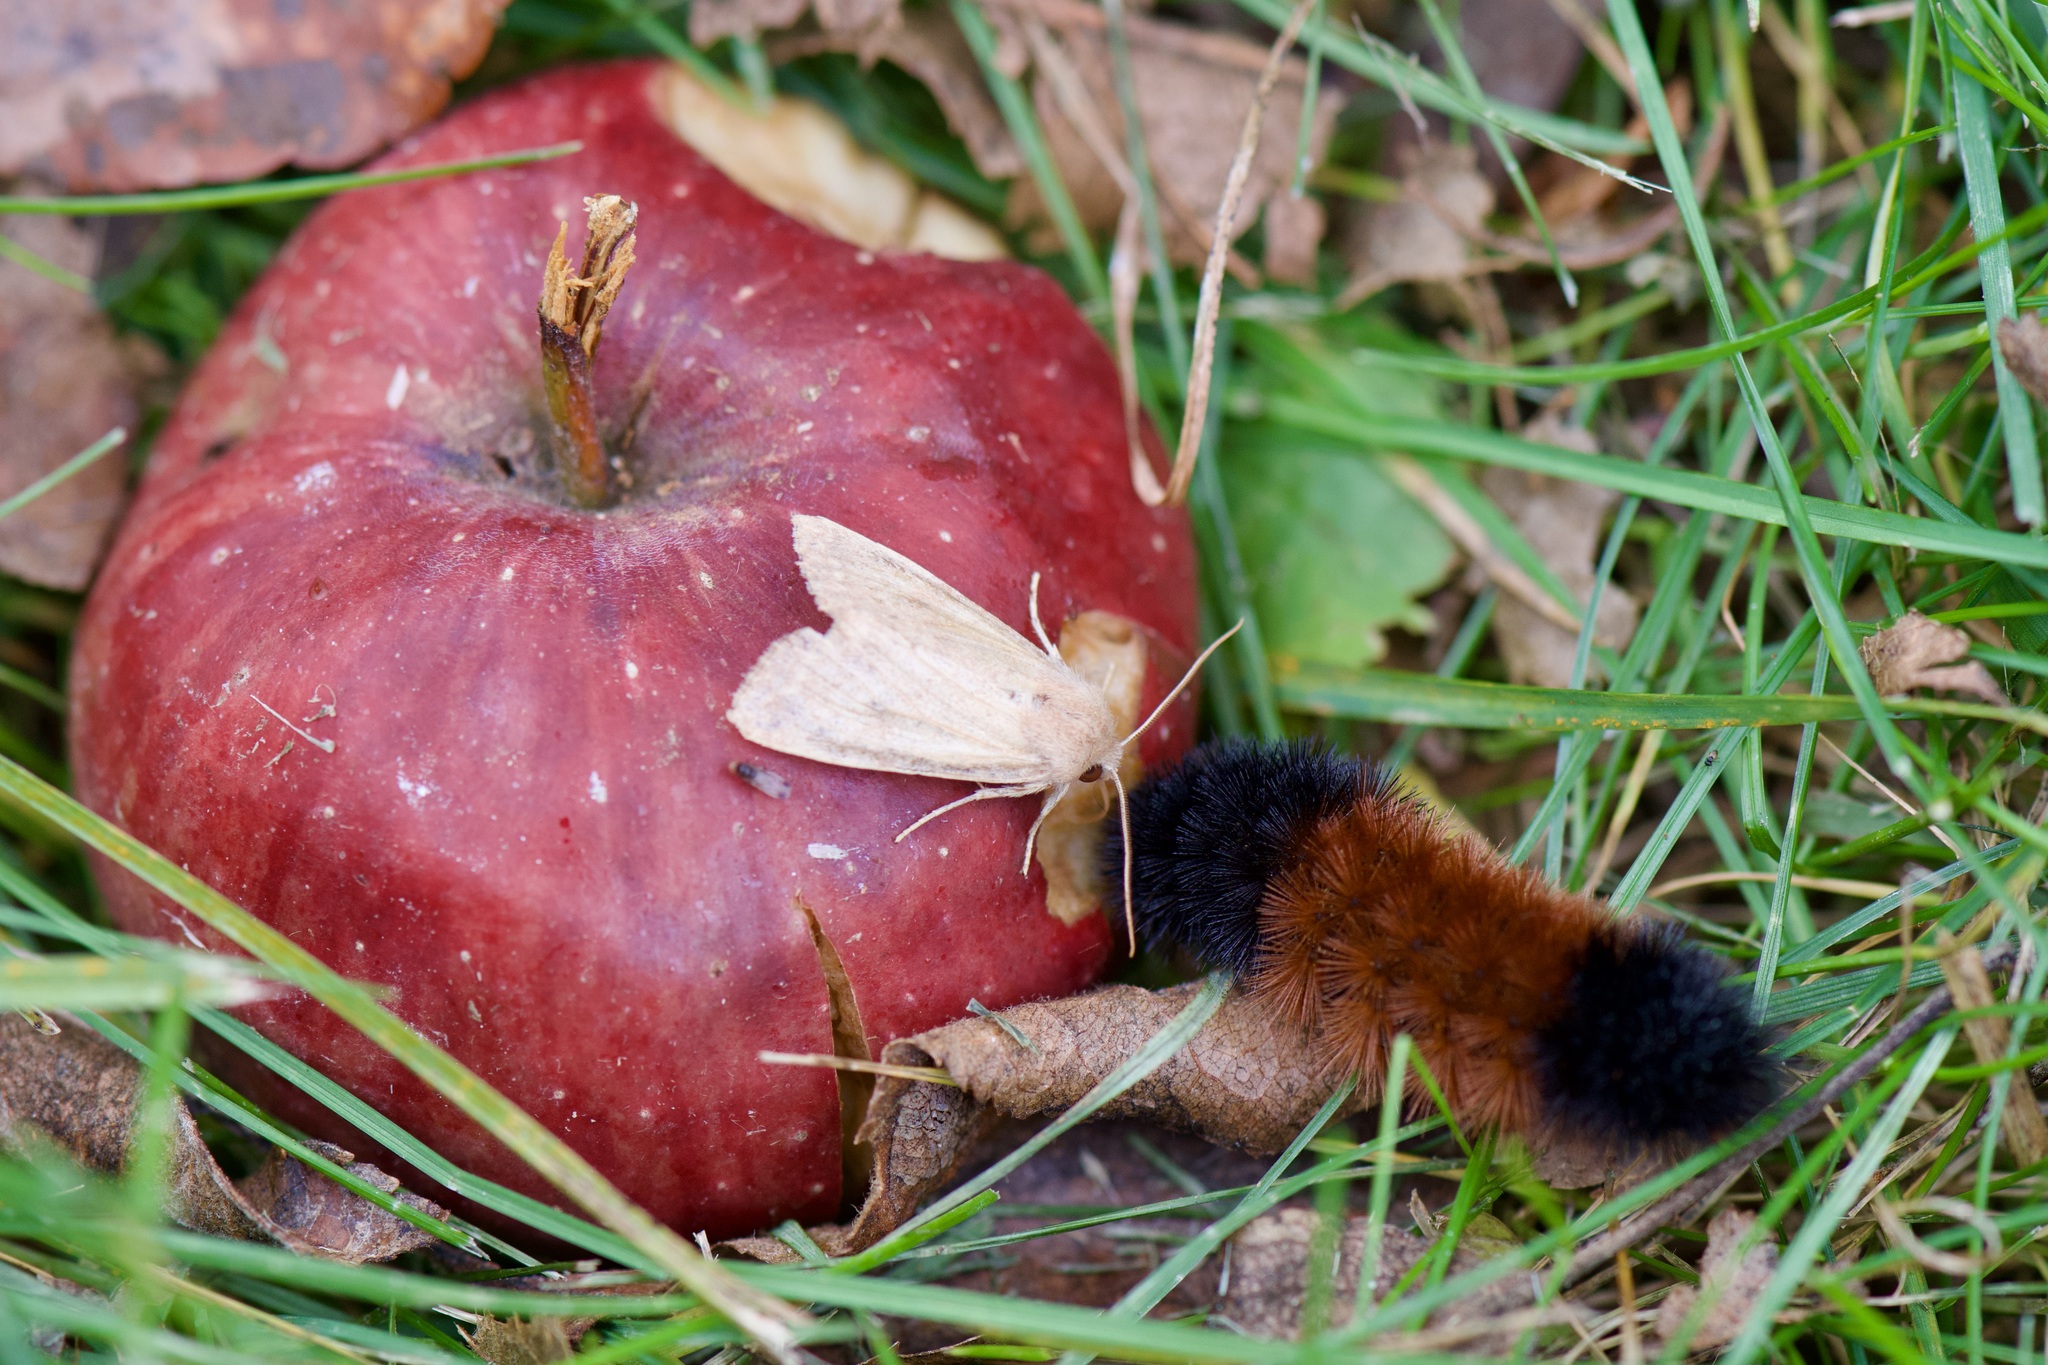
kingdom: Animalia
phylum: Arthropoda
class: Insecta
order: Lepidoptera
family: Erebidae
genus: Pyrrharctia
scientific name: Pyrrharctia isabella
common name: Isabella tiger moth
